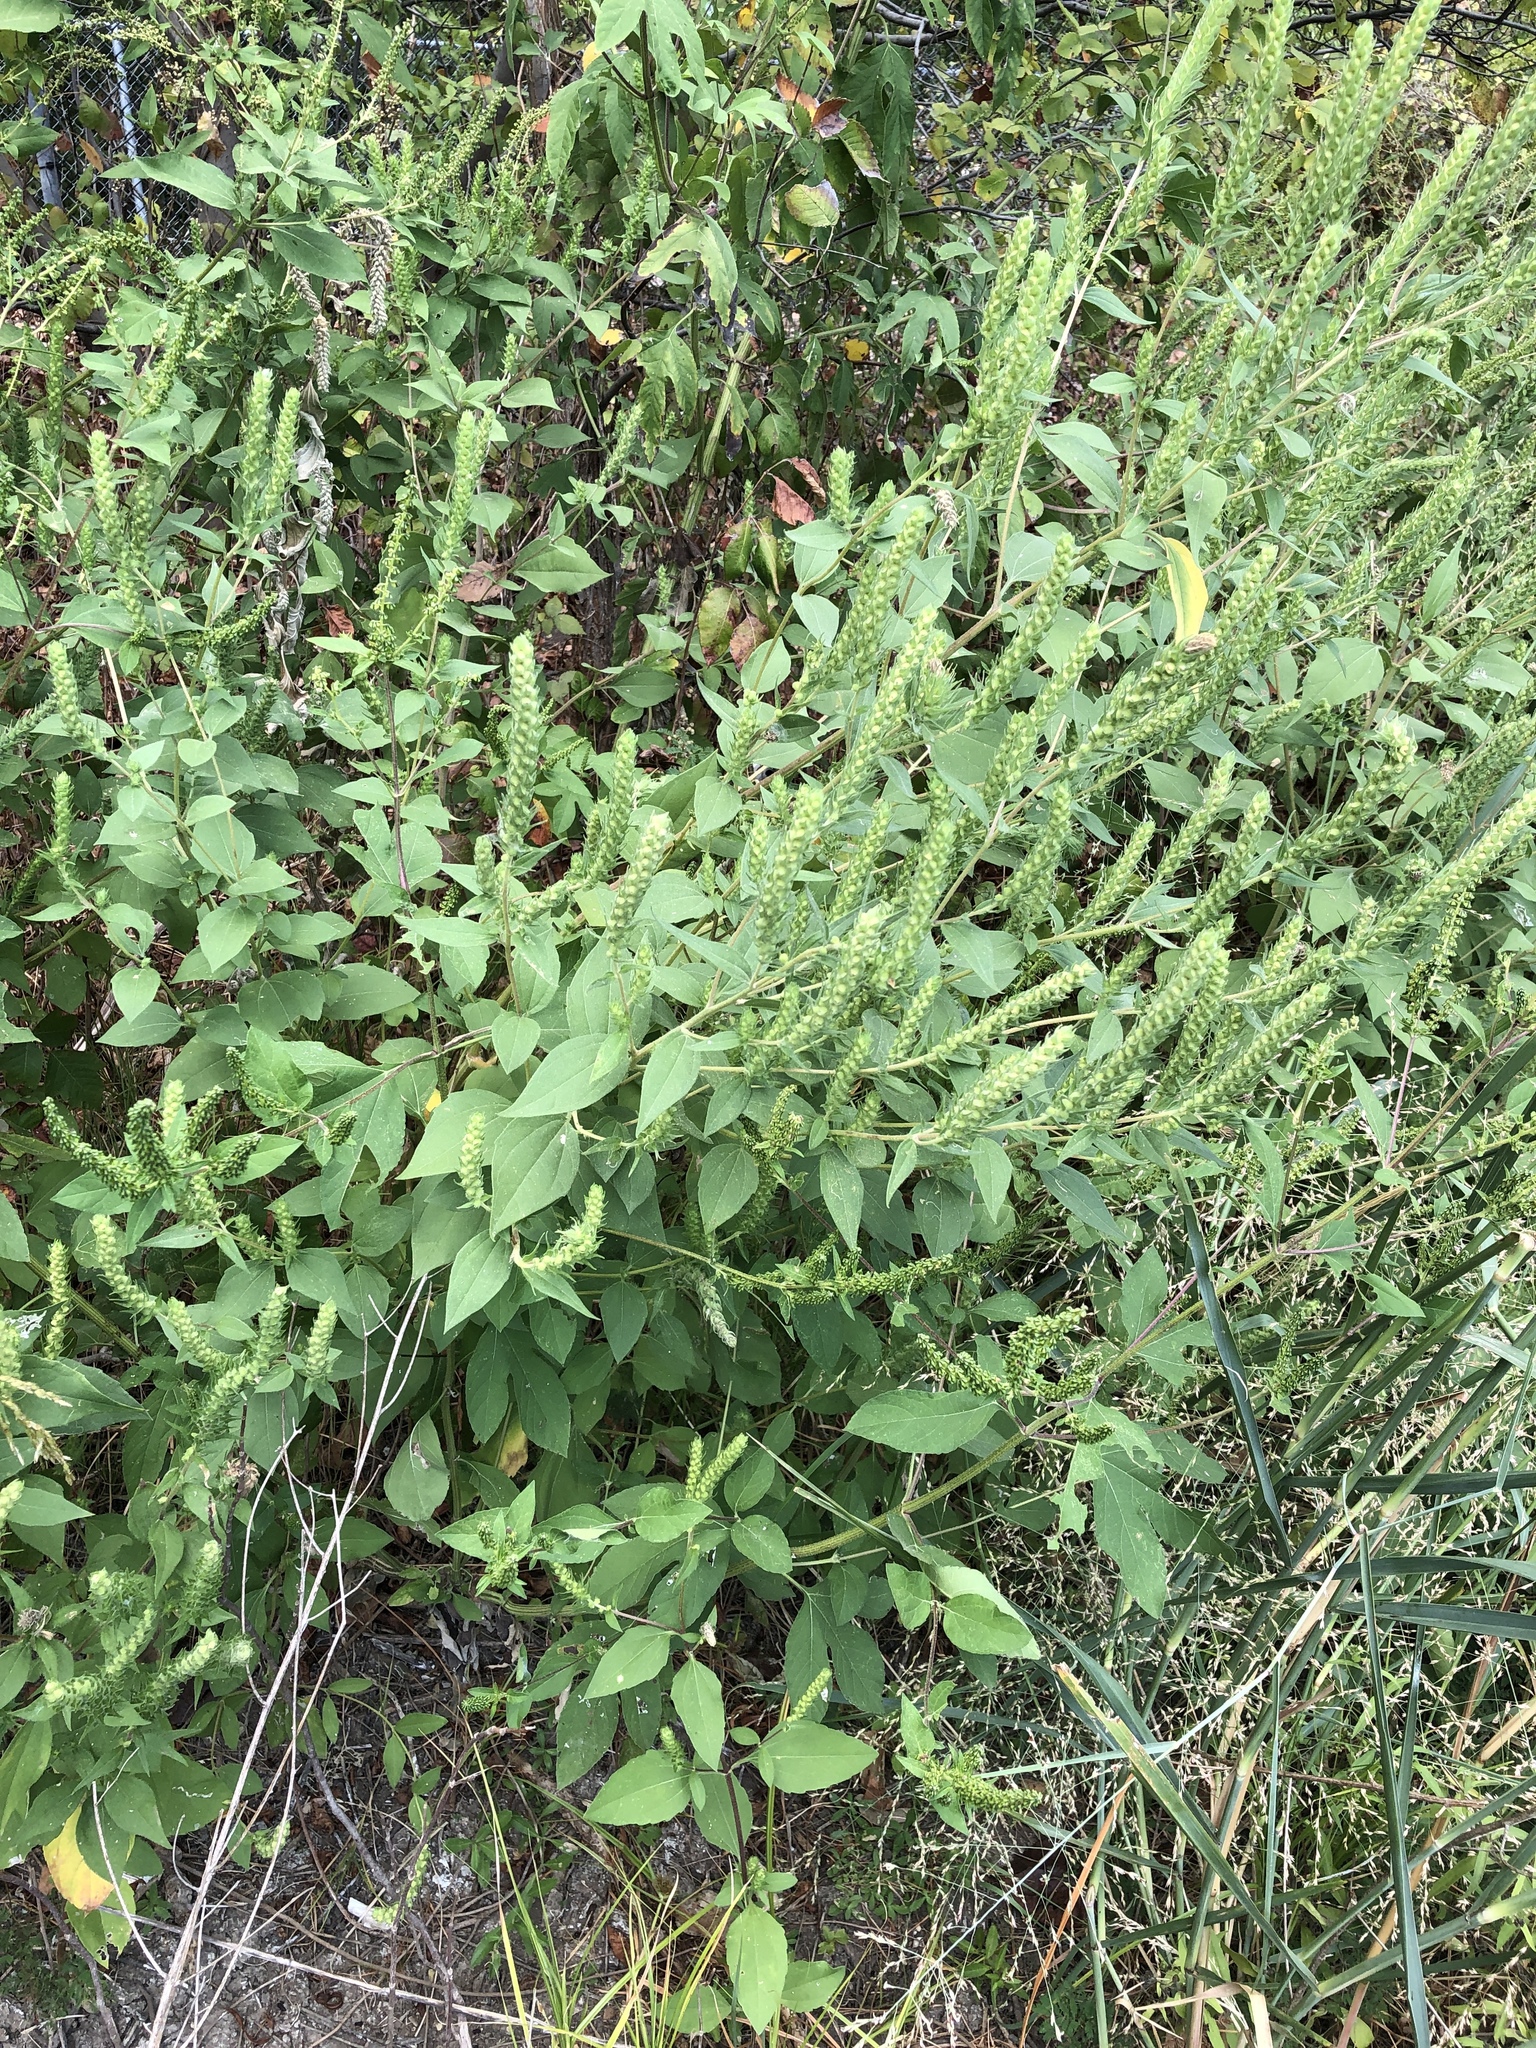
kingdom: Plantae
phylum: Tracheophyta
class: Magnoliopsida
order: Asterales
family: Asteraceae
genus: Iva
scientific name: Iva annua
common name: Marsh-elder
